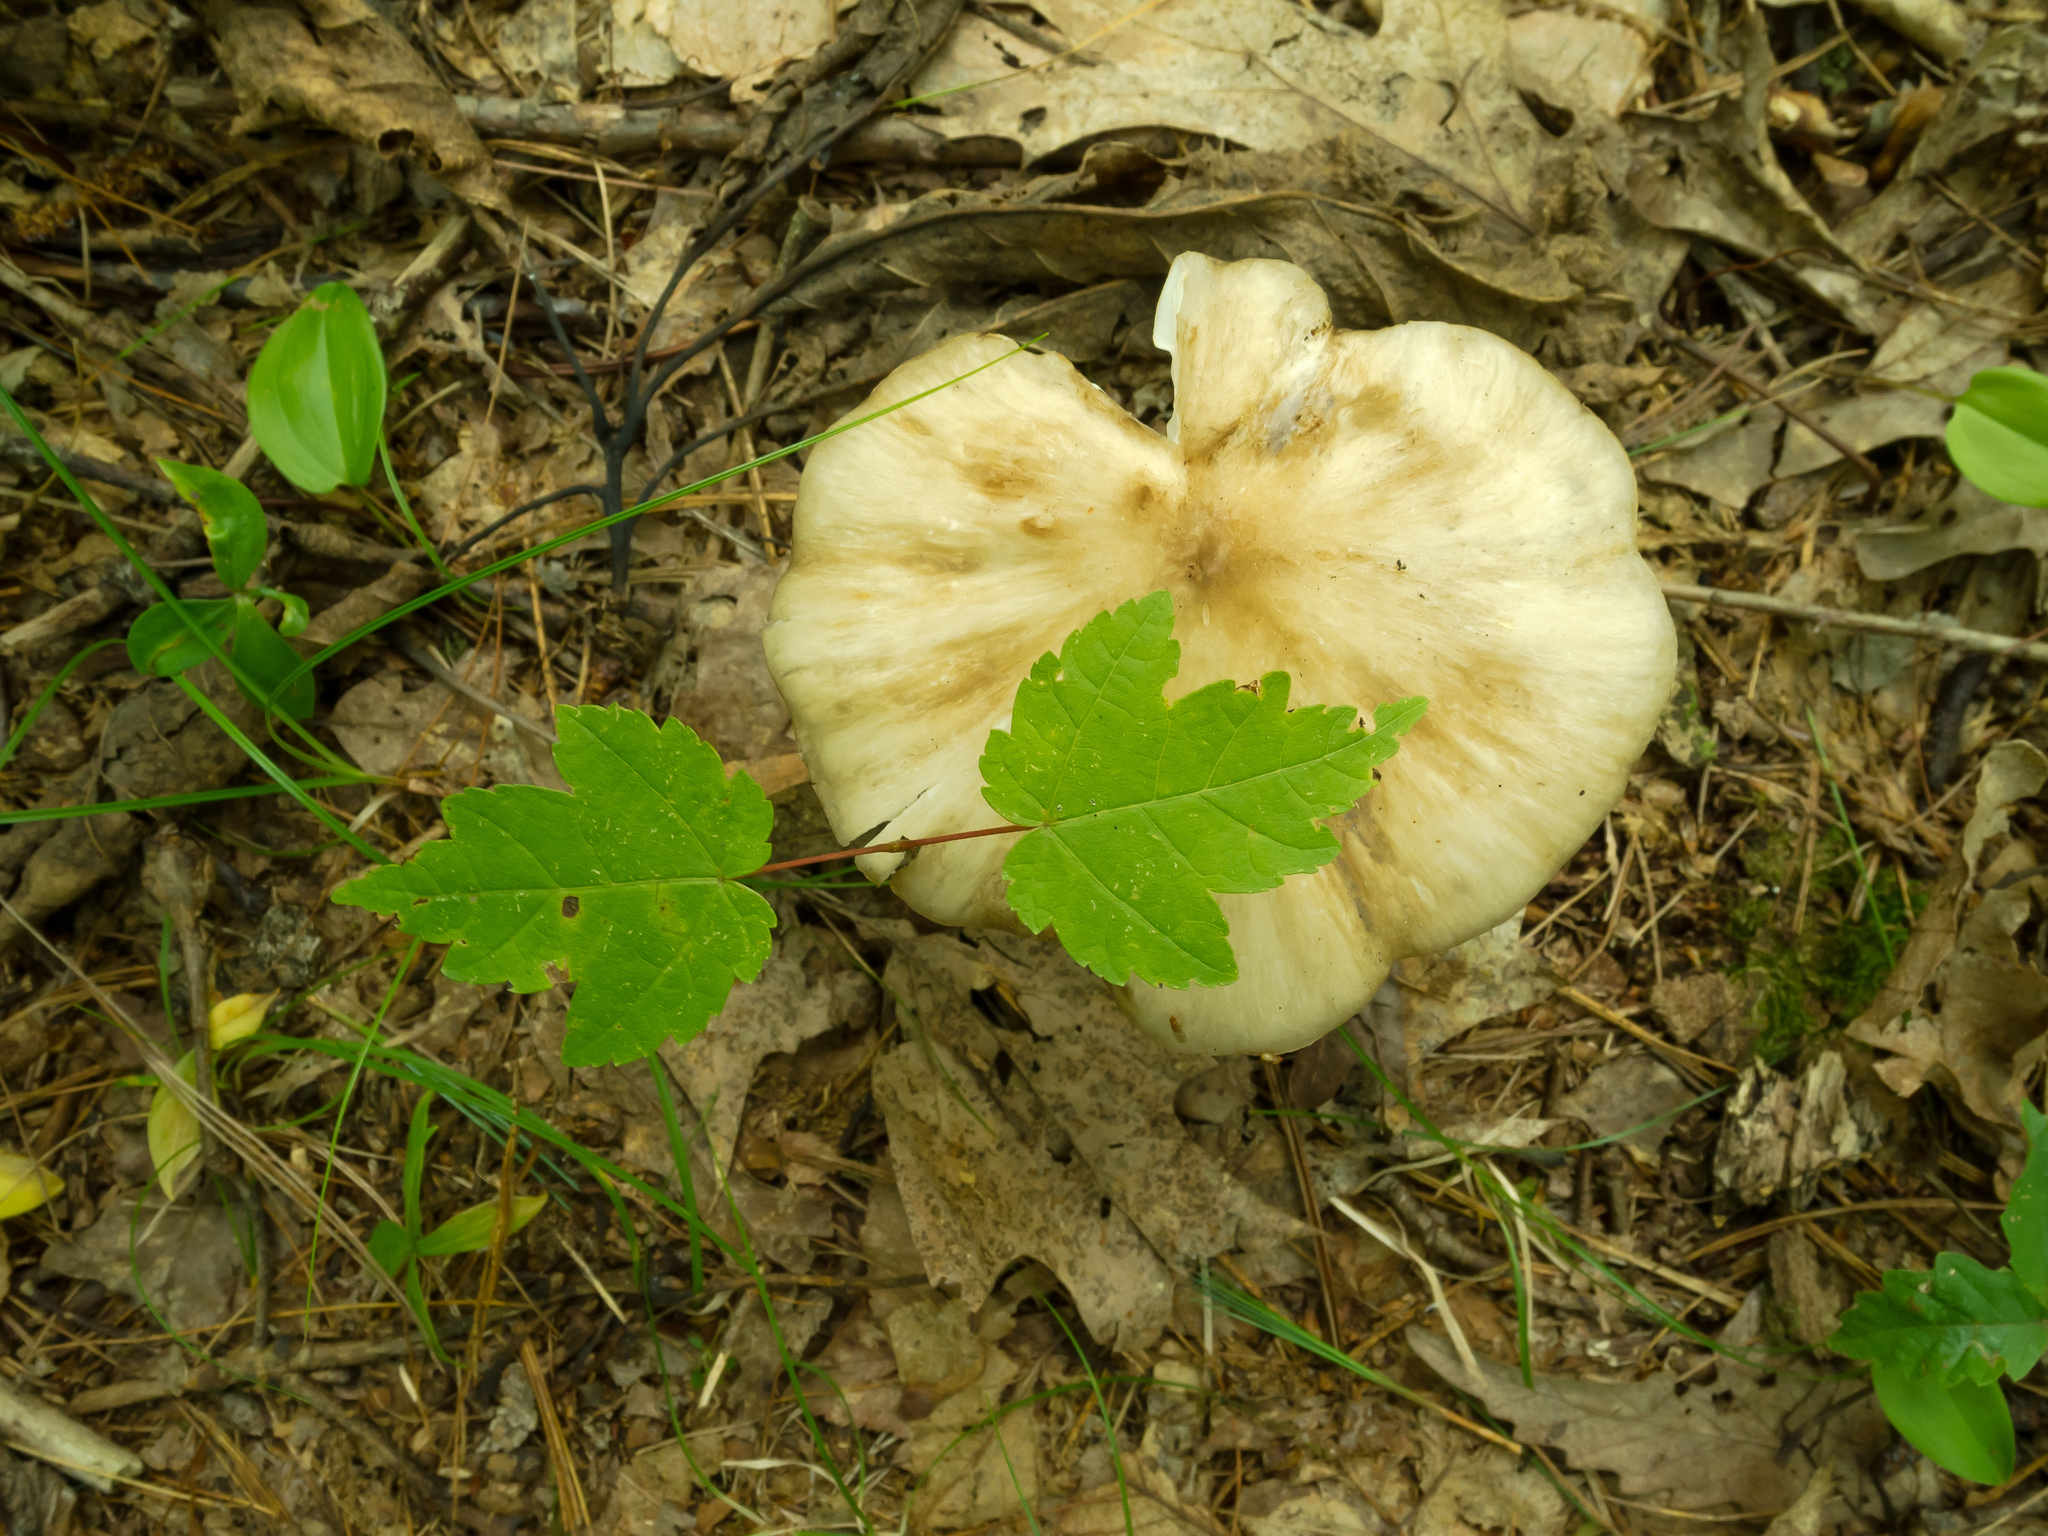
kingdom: Fungi
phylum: Basidiomycota
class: Agaricomycetes
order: Agaricales
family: Tricholomataceae
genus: Megacollybia
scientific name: Megacollybia rodmanii
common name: Eastern american platterful mushroom
